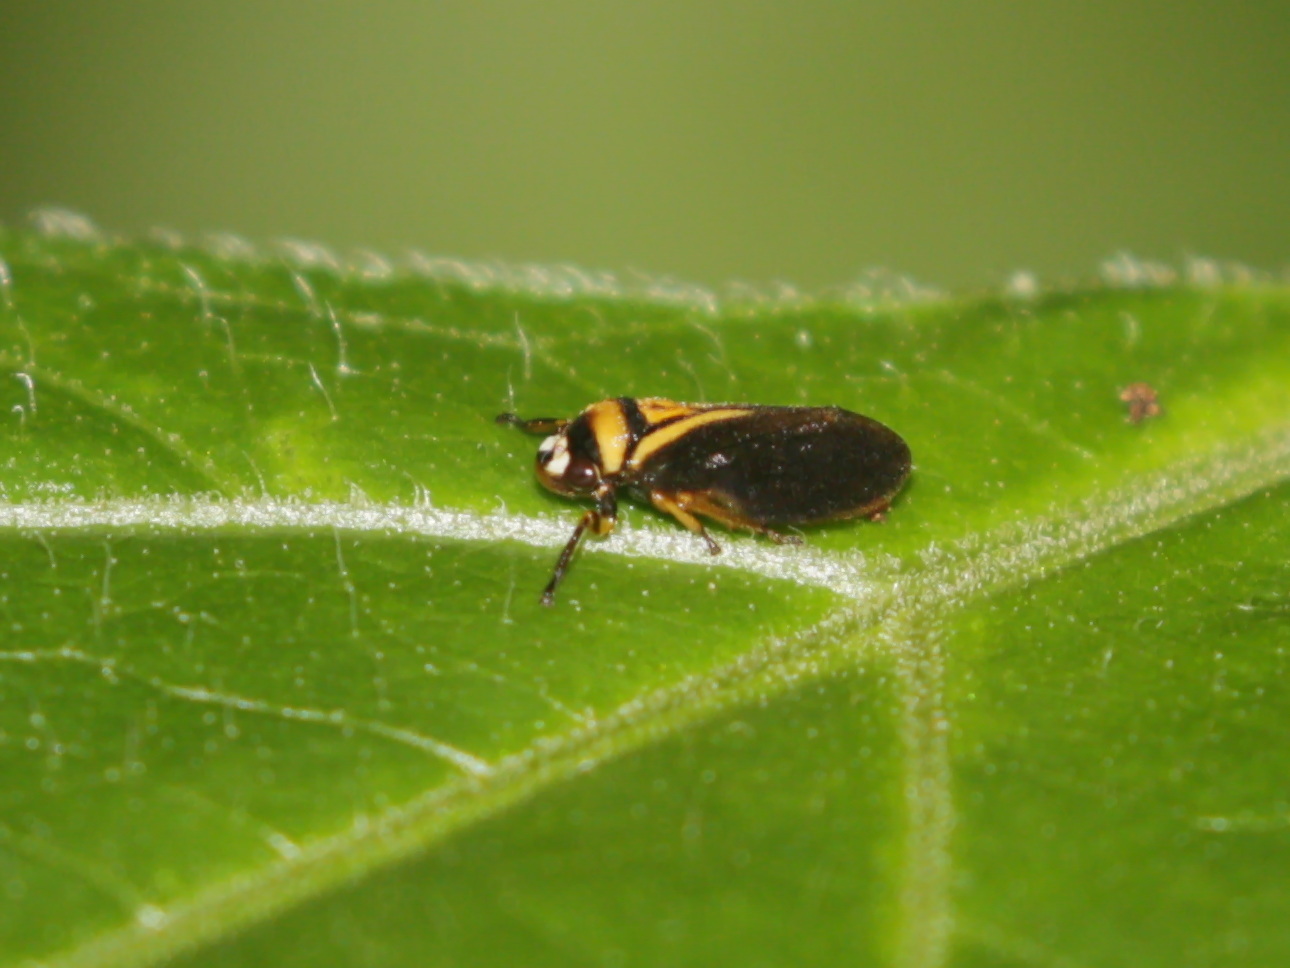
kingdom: Animalia
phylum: Arthropoda
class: Insecta
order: Hemiptera
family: Cercopidae
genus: Hemiaufidus
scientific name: Hemiaufidus peninsularis
